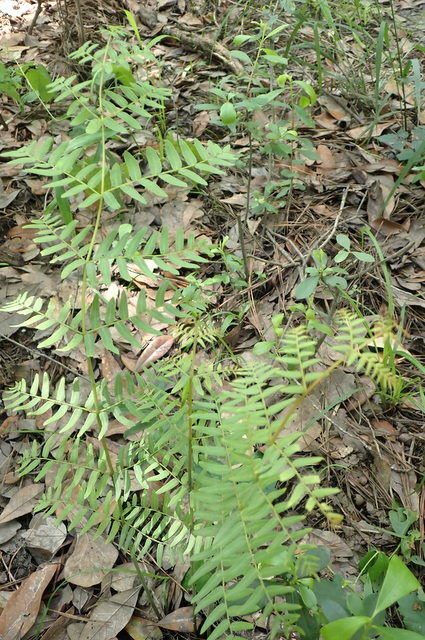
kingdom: Plantae
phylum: Tracheophyta
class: Polypodiopsida
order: Osmundales
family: Osmundaceae
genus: Osmunda
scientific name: Osmunda spectabilis
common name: American royal fern
